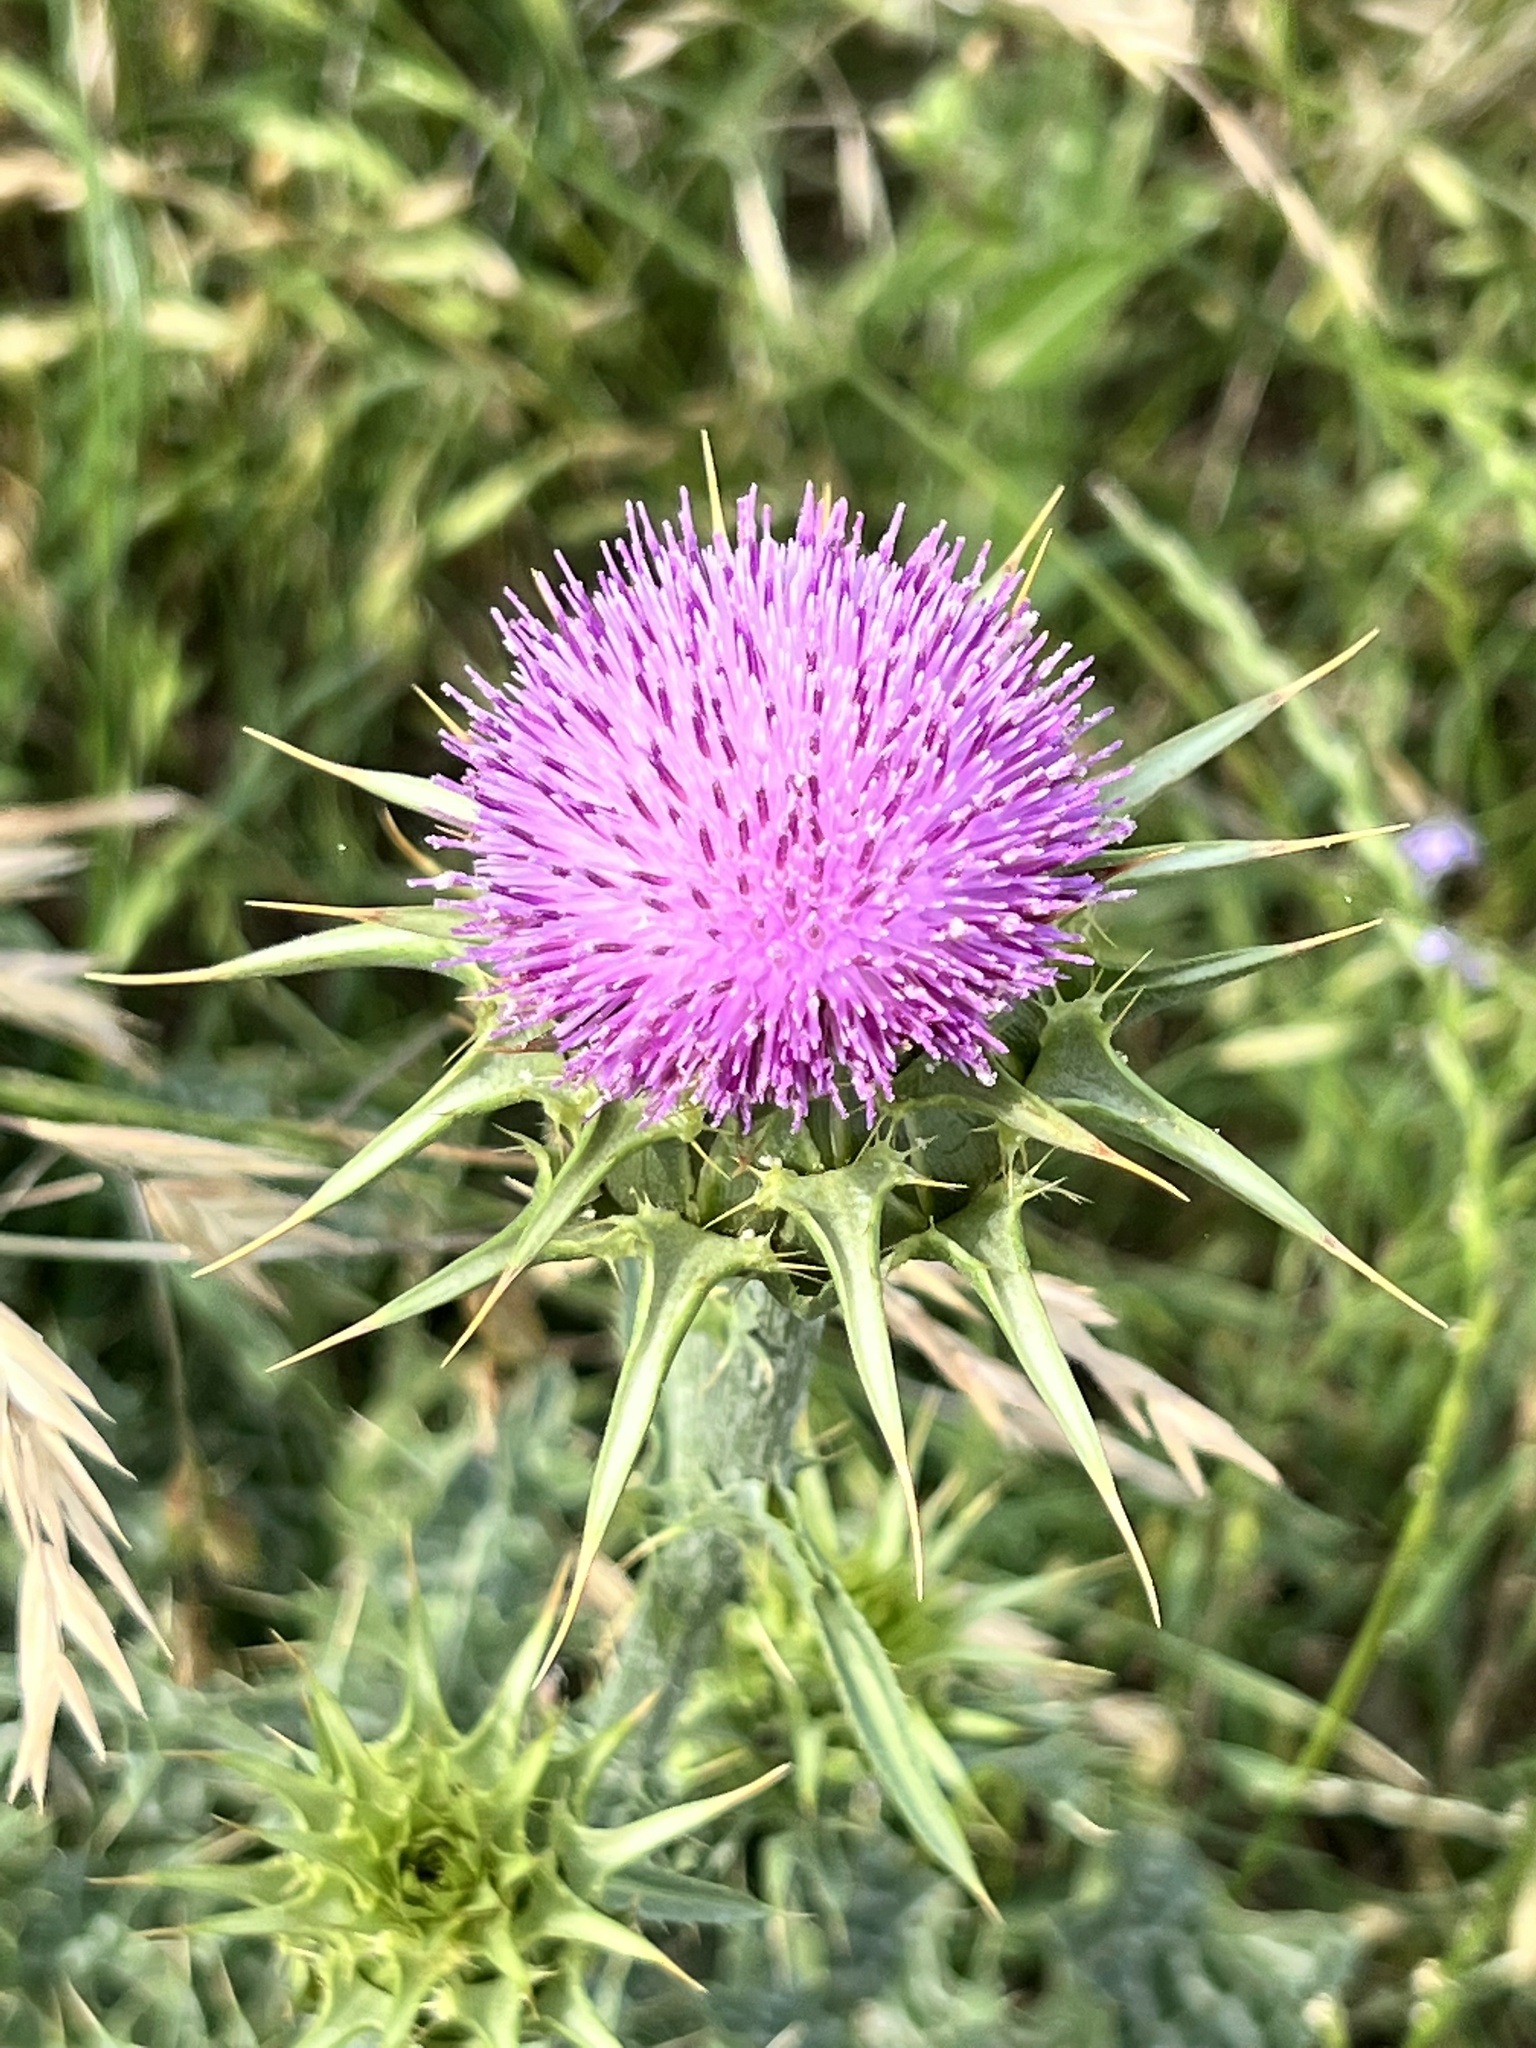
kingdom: Plantae
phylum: Tracheophyta
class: Magnoliopsida
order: Asterales
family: Asteraceae
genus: Silybum
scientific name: Silybum marianum
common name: Milk thistle
